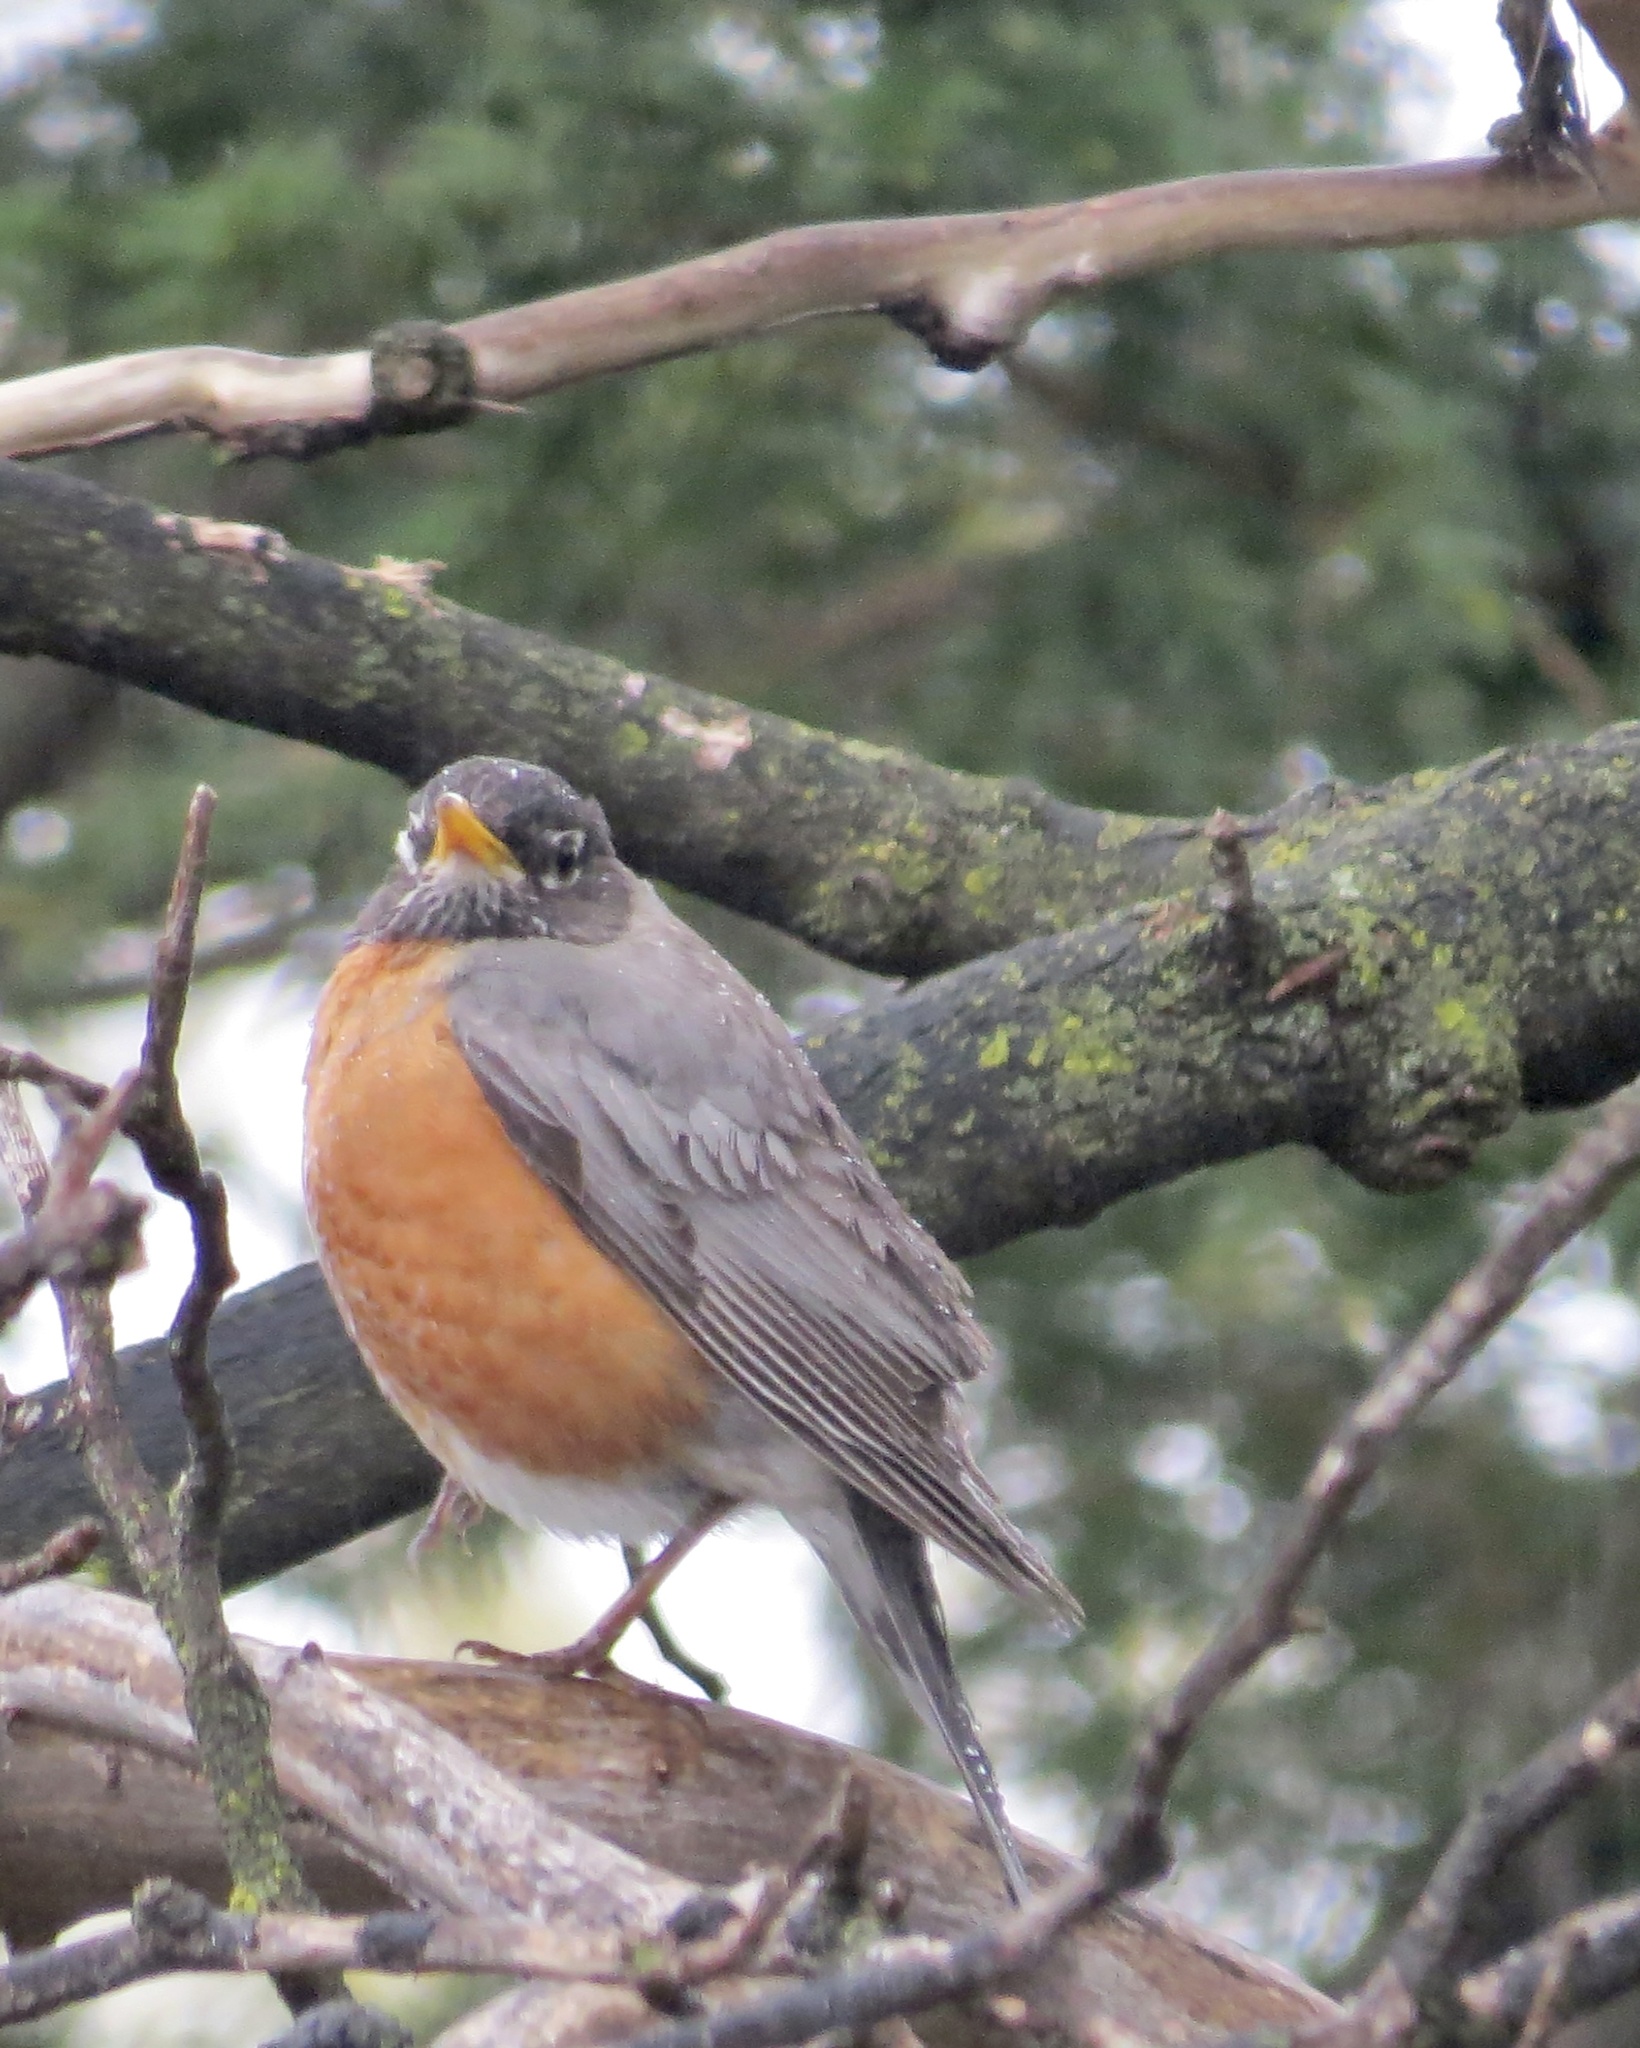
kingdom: Animalia
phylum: Chordata
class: Aves
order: Passeriformes
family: Turdidae
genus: Turdus
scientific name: Turdus migratorius
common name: American robin
